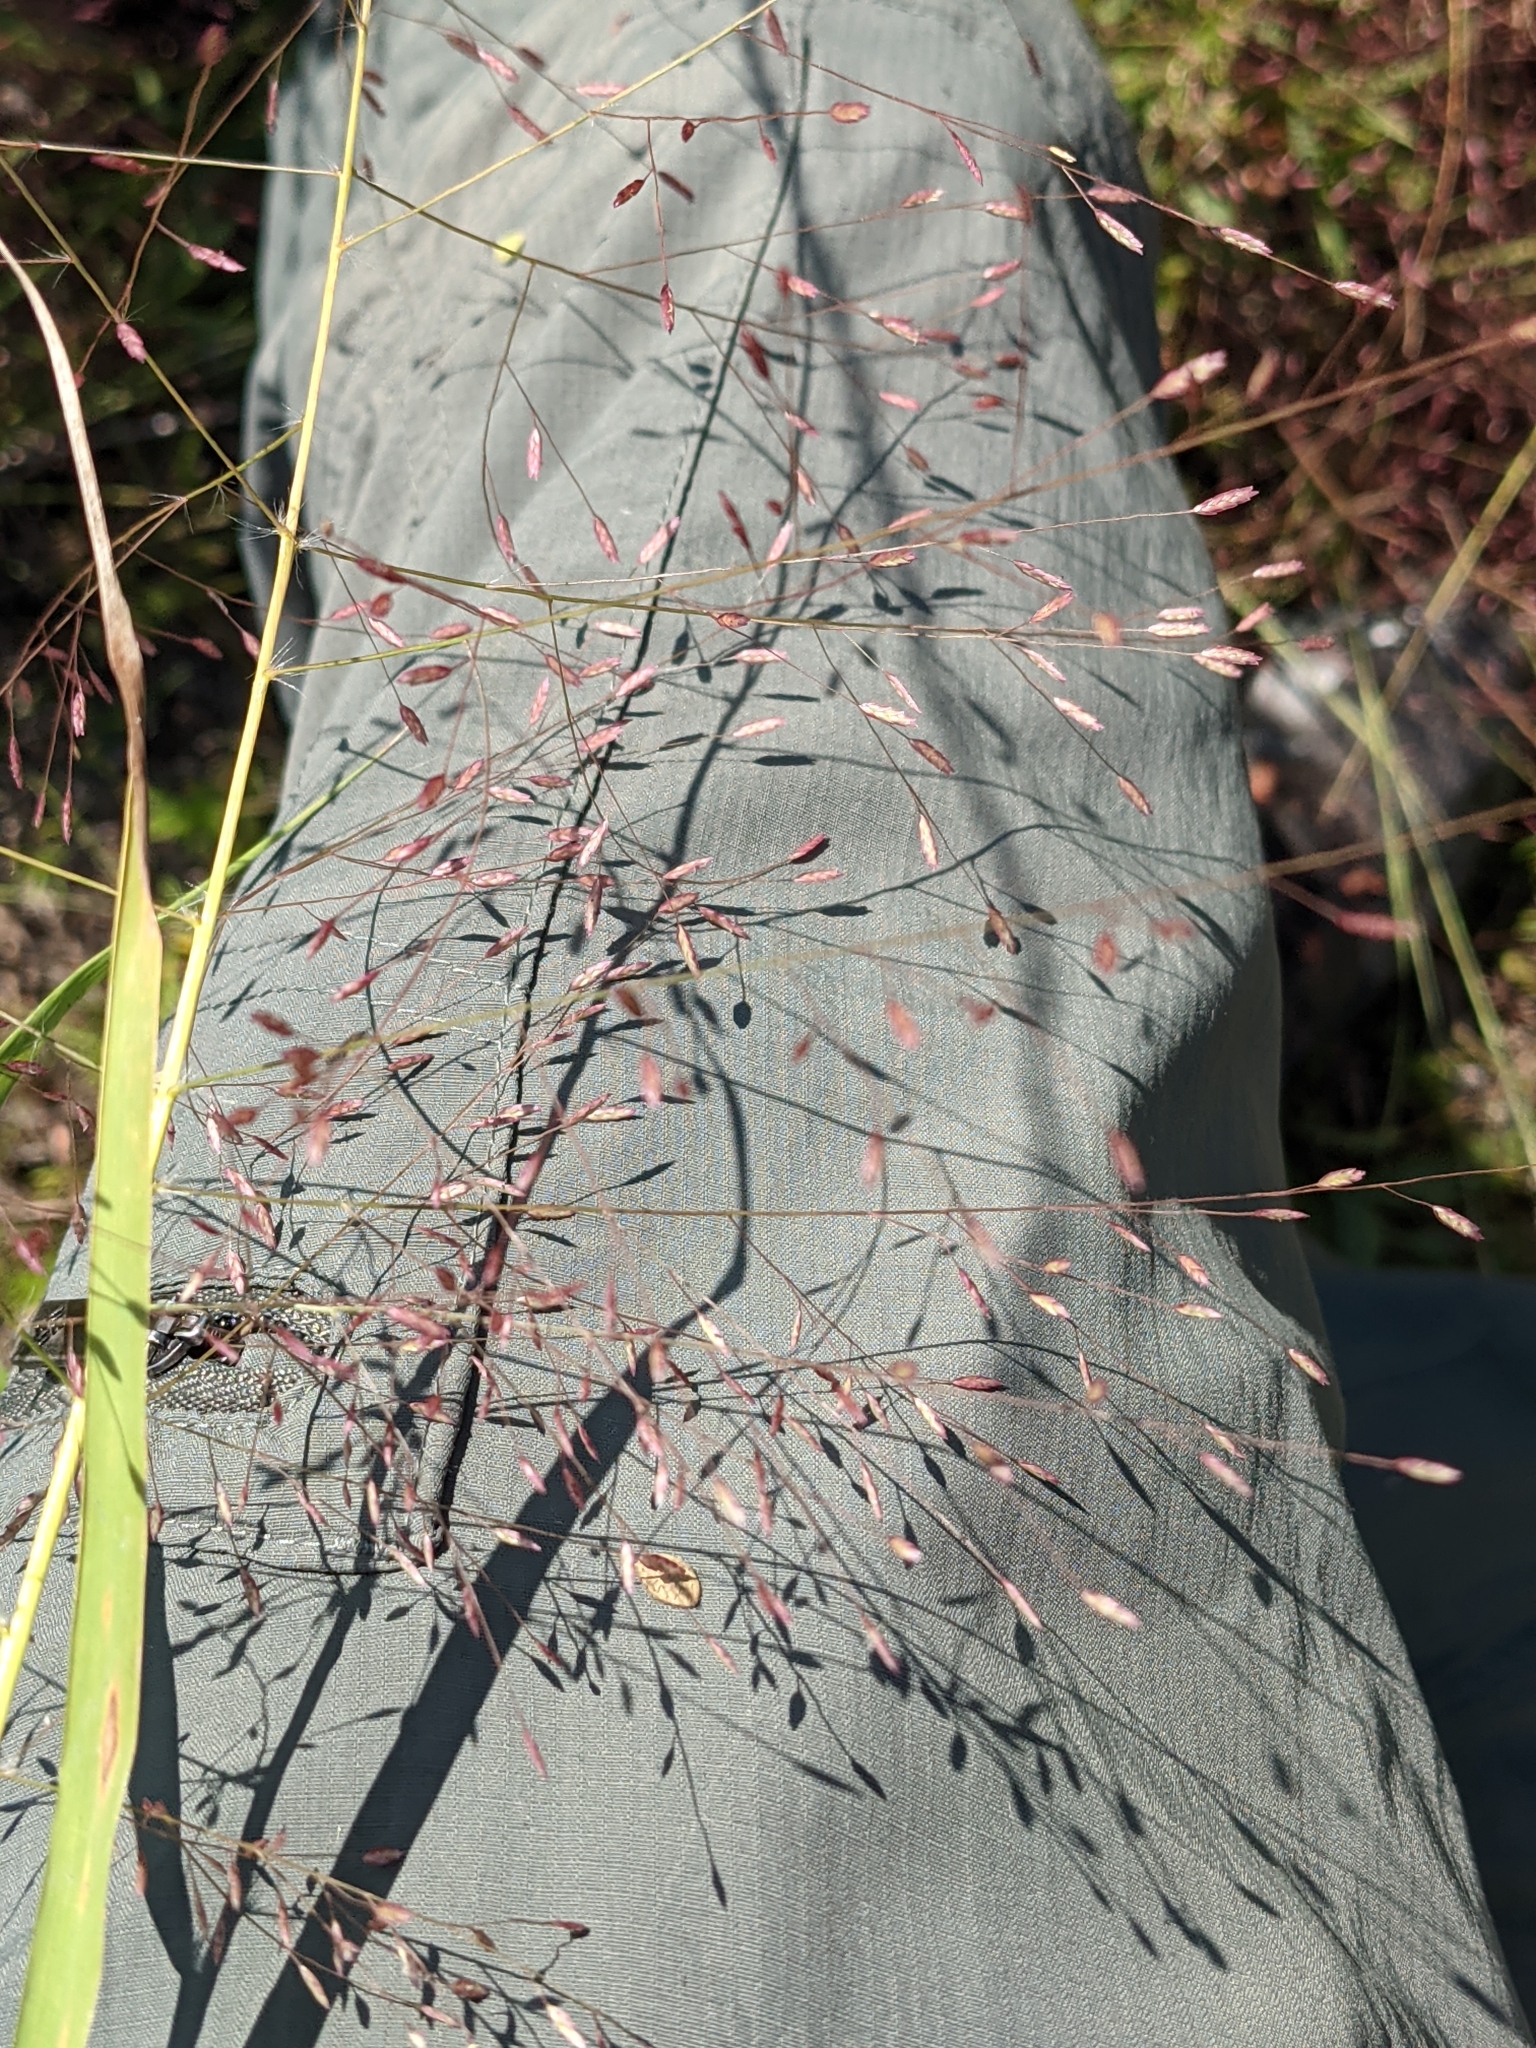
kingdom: Plantae
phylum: Tracheophyta
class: Liliopsida
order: Poales
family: Poaceae
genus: Eragrostis
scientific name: Eragrostis spectabilis
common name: Petticoat-climber
